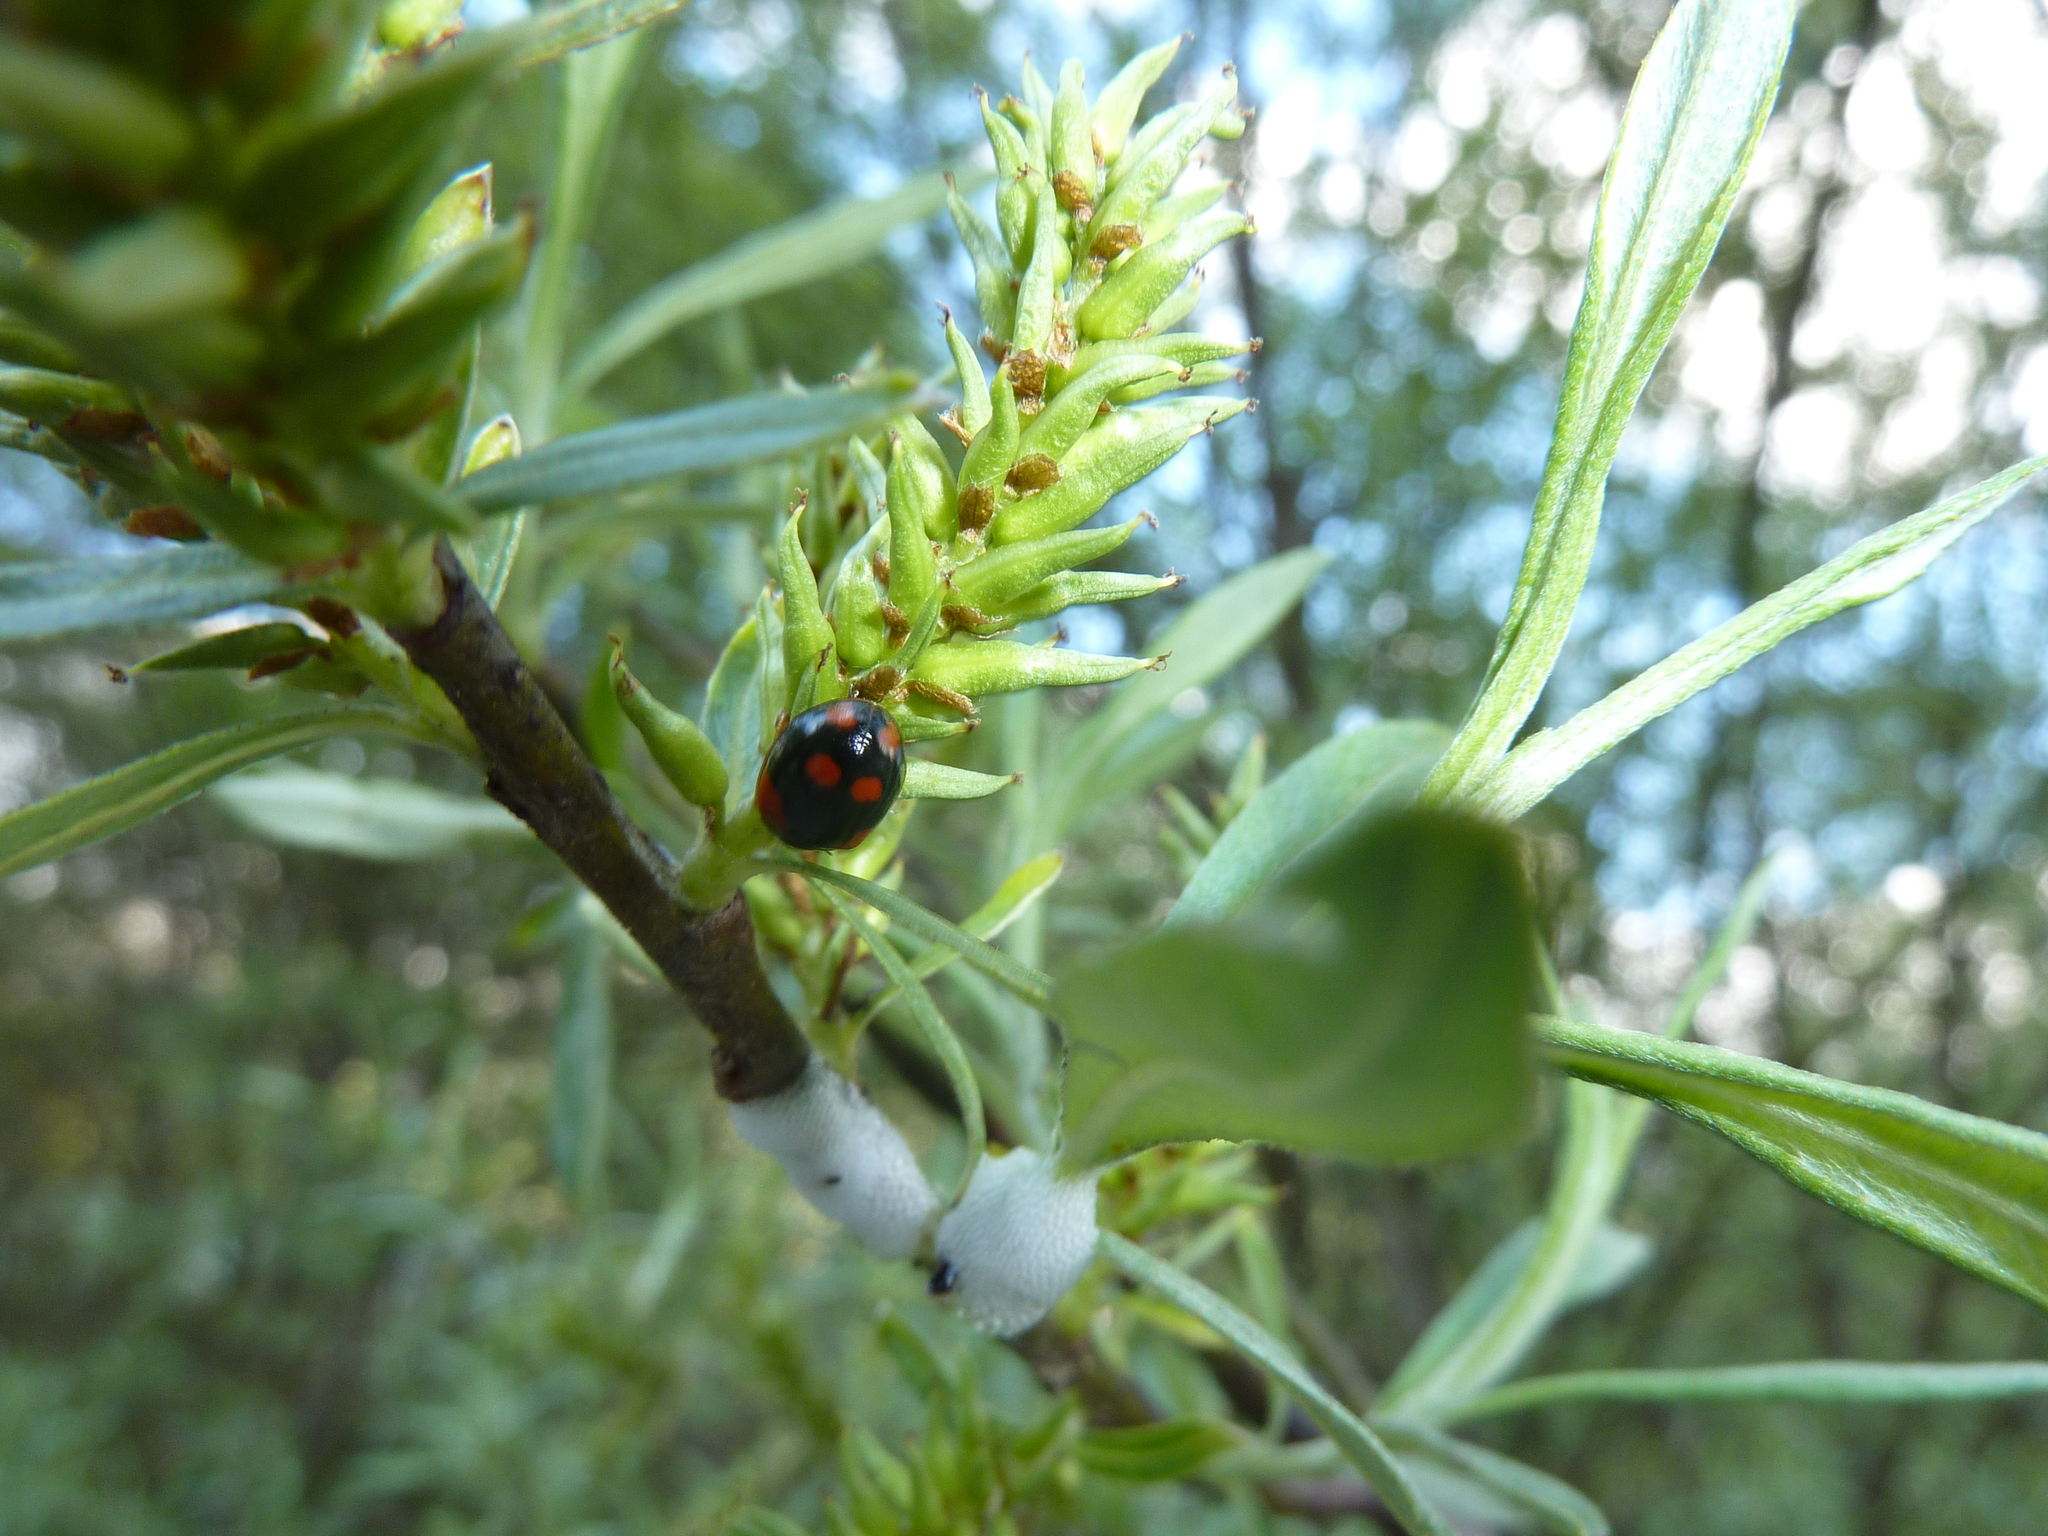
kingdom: Animalia
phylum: Arthropoda
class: Insecta
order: Coleoptera
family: Coccinellidae
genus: Adalia
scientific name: Adalia bipunctata
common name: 2-spot ladybird
